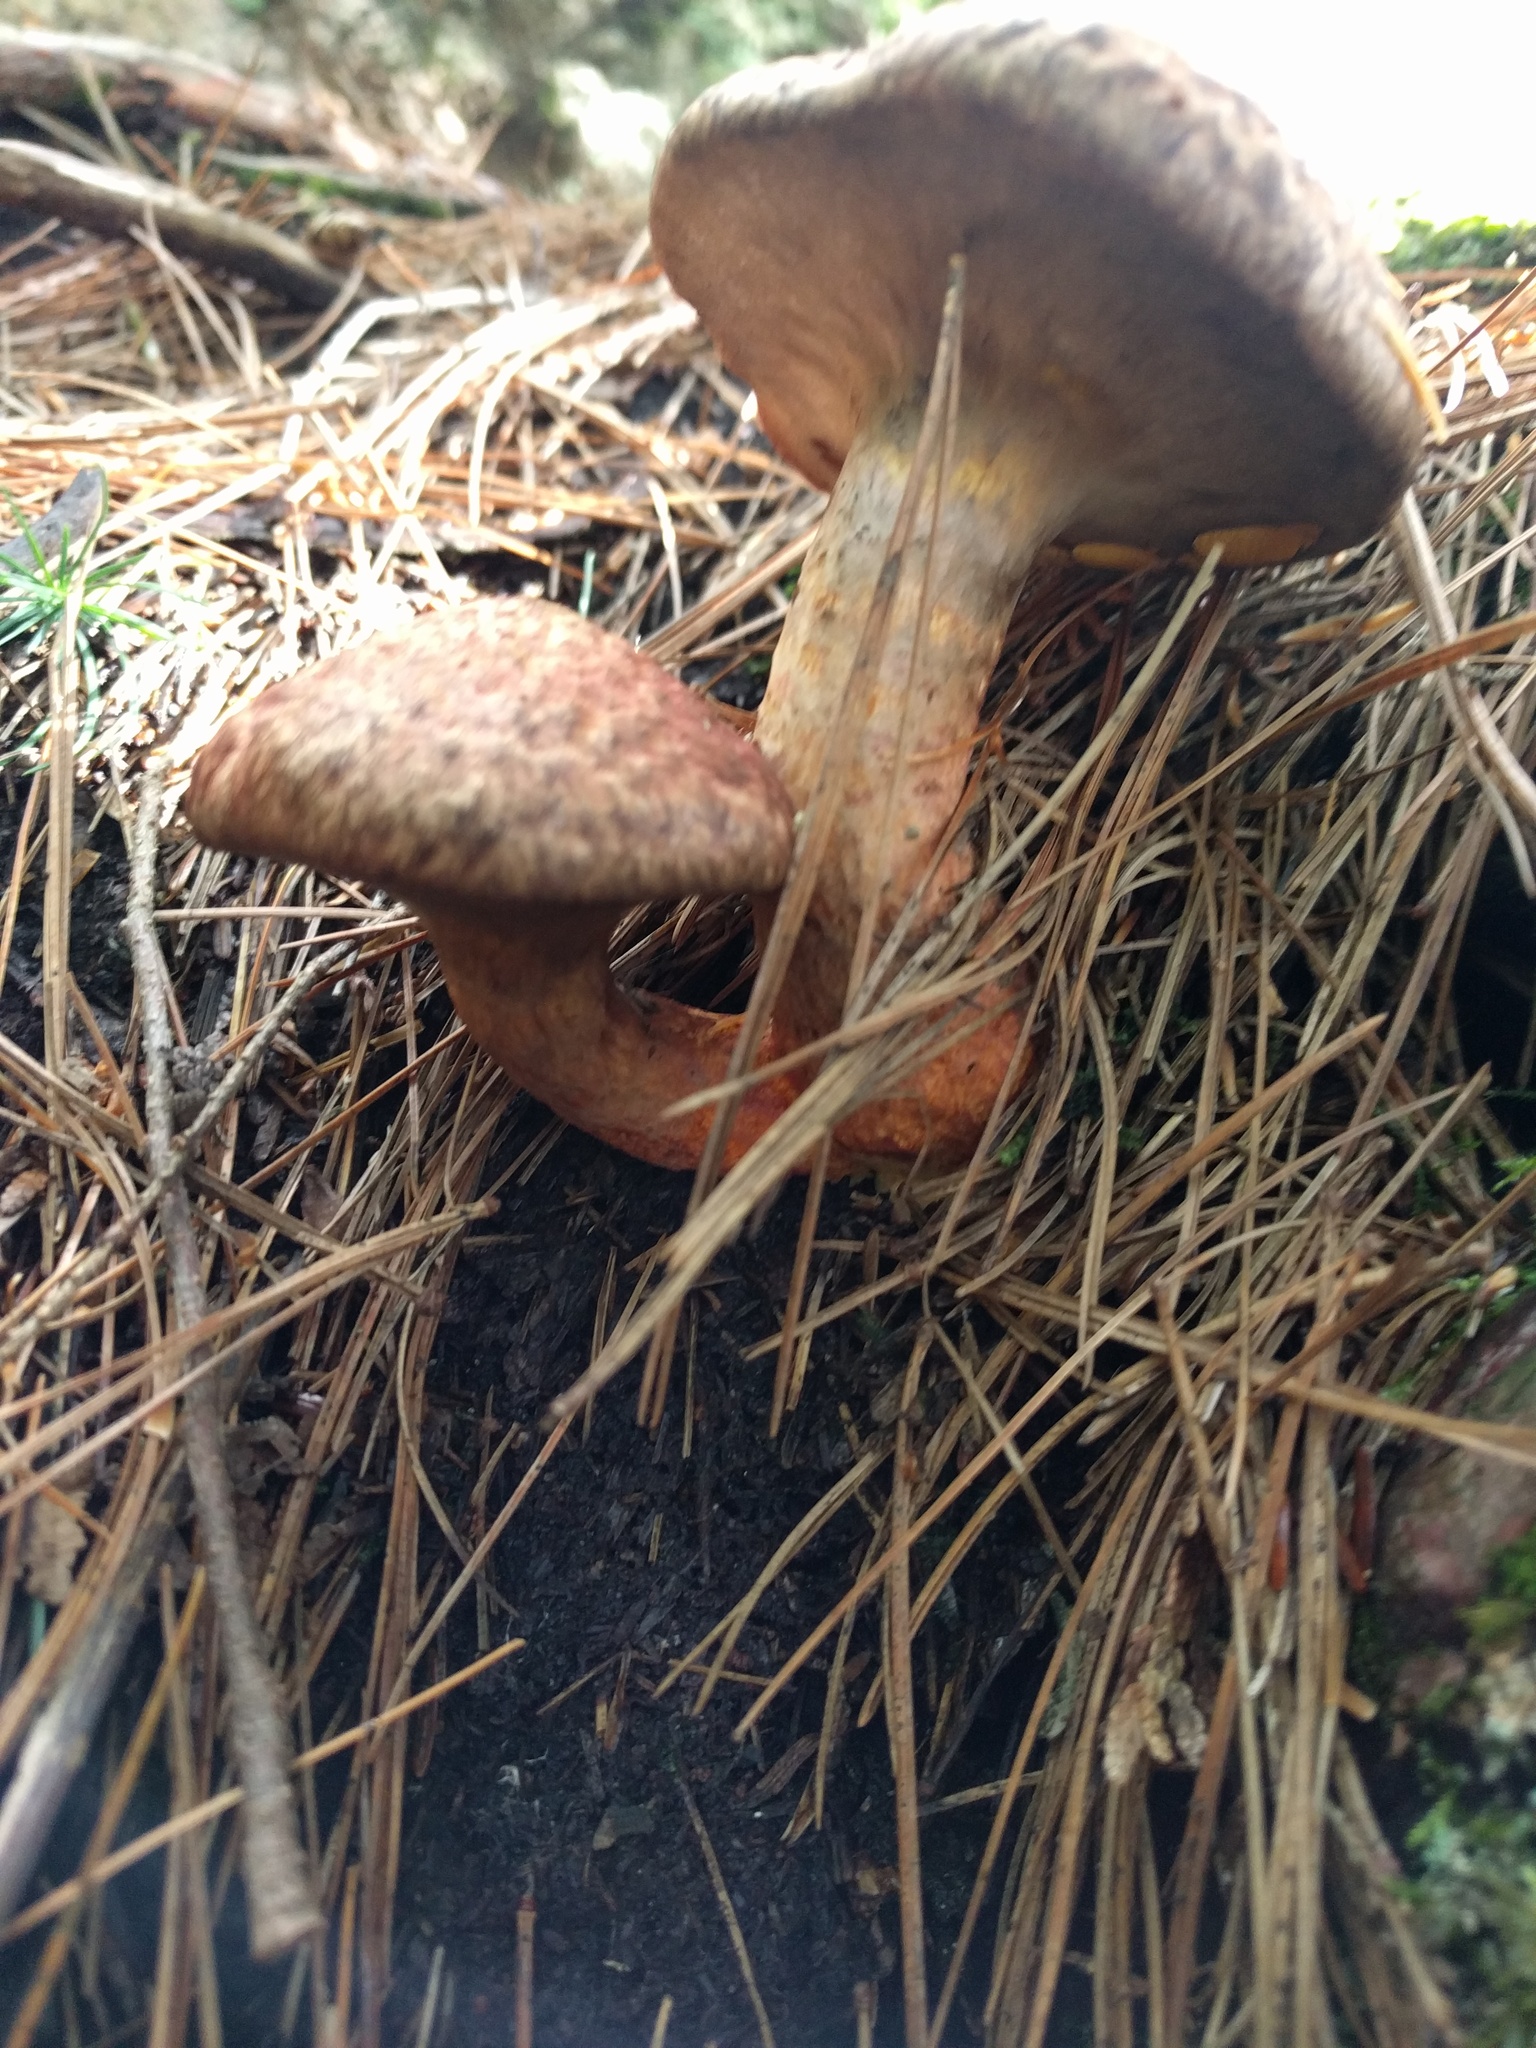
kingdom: Fungi
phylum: Basidiomycota
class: Agaricomycetes
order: Boletales
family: Suillaceae
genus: Suillus
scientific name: Suillus spraguei
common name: Painted suillus
